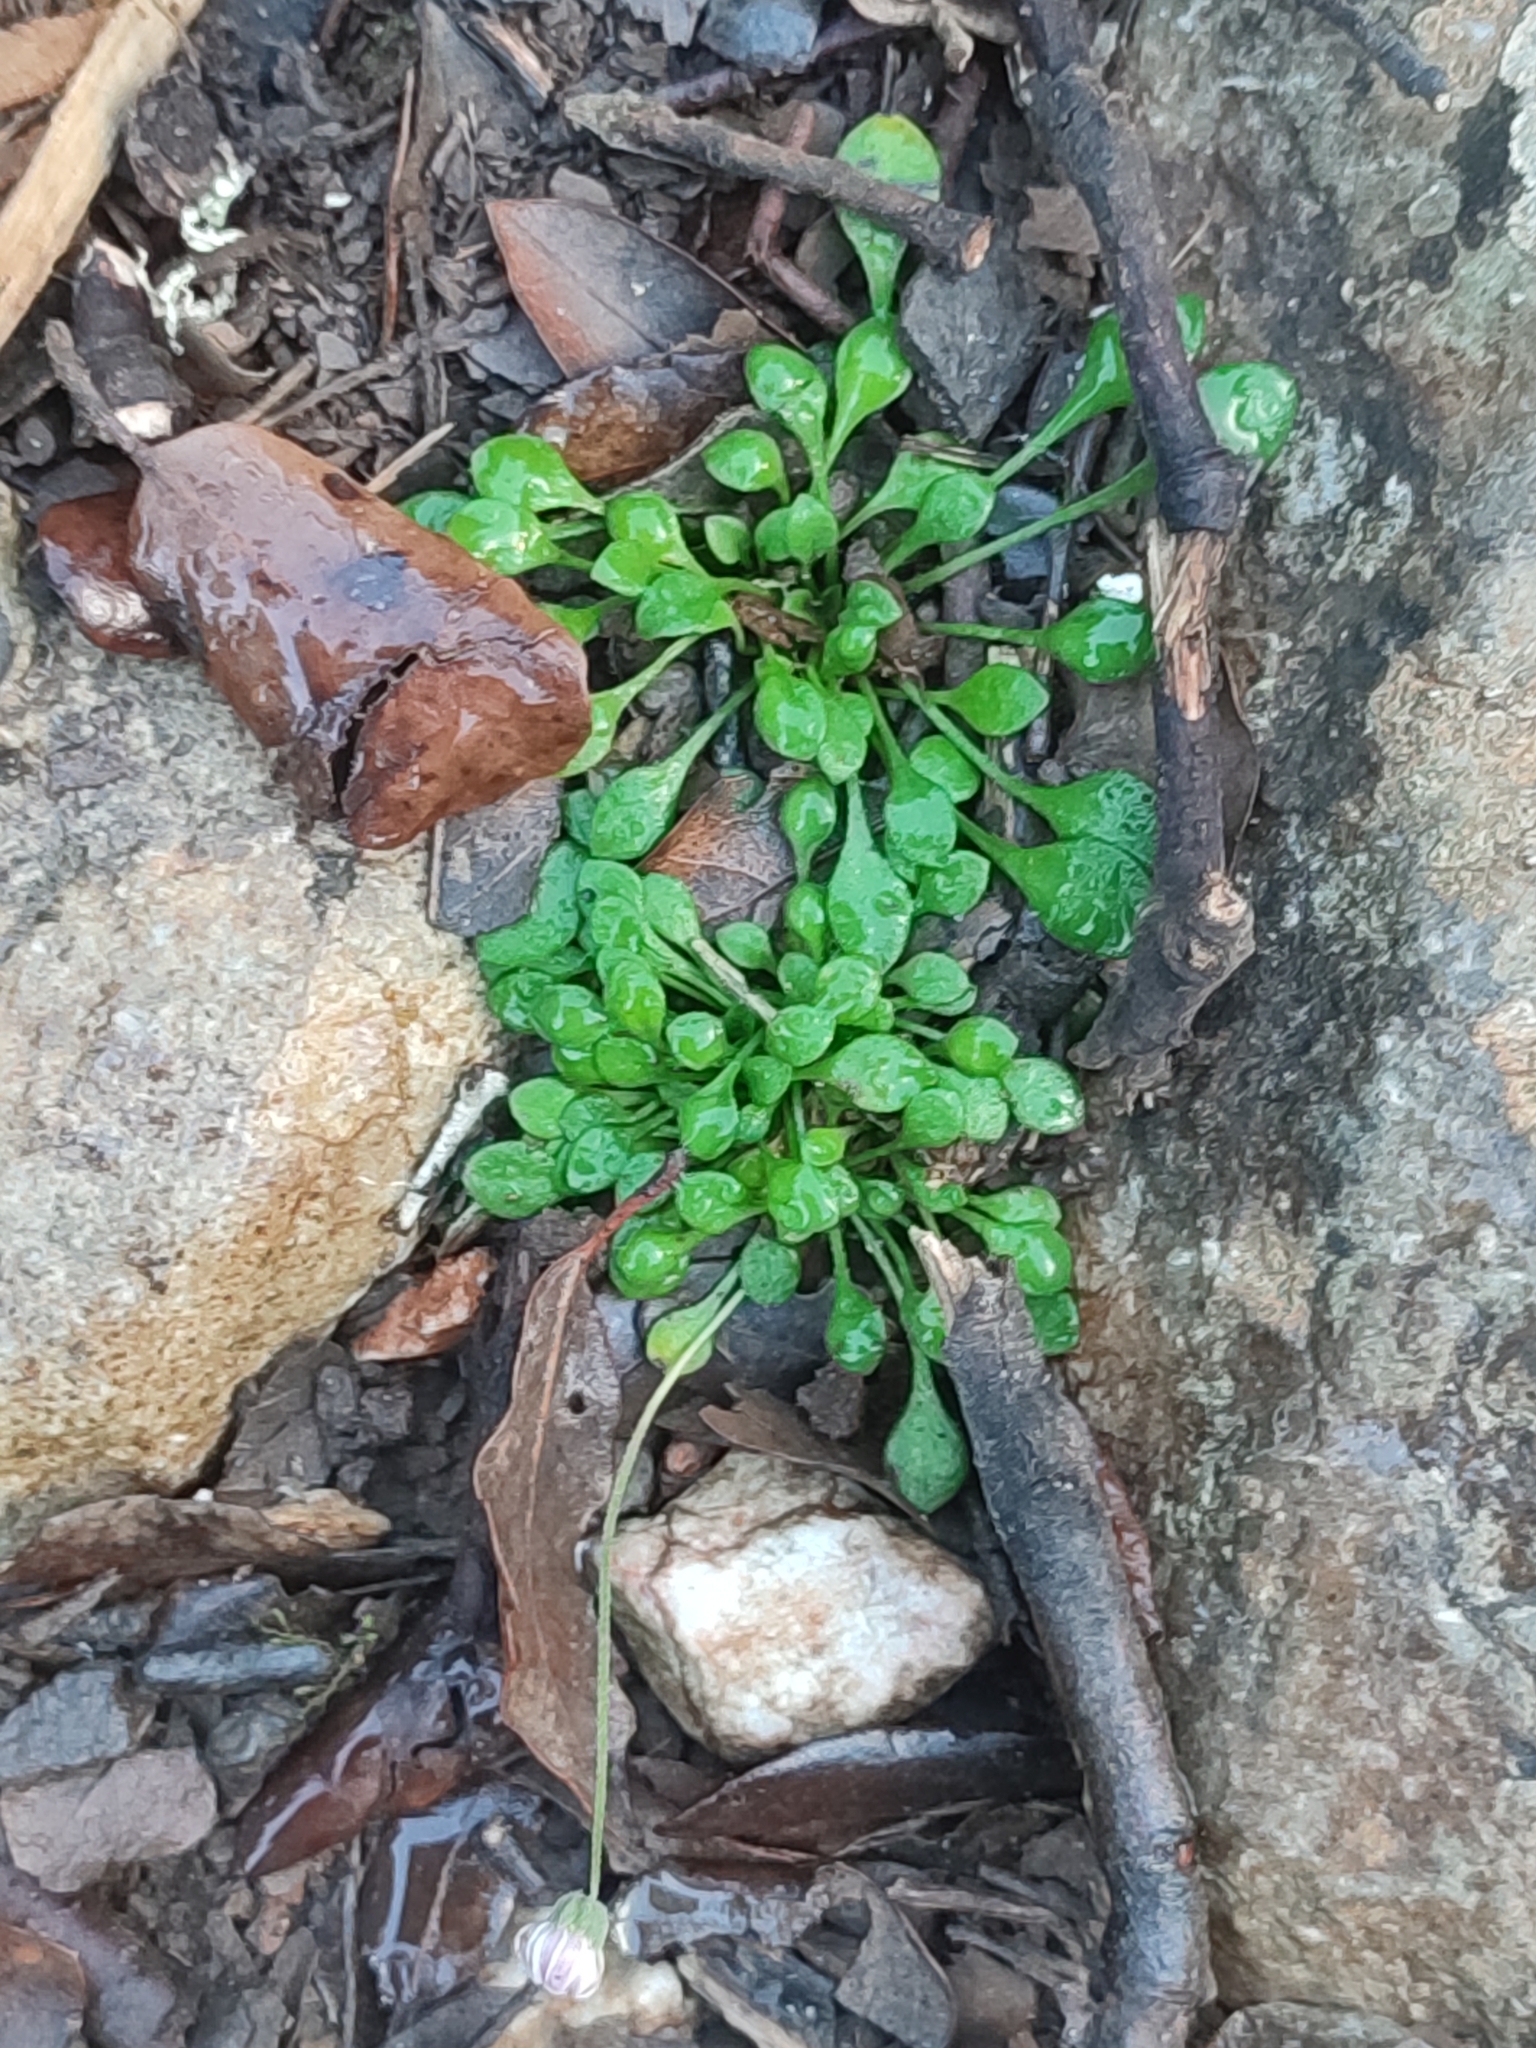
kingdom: Plantae
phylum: Tracheophyta
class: Magnoliopsida
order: Asterales
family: Asteraceae
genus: Bellium
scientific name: Bellium bellidioides
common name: False daisy
